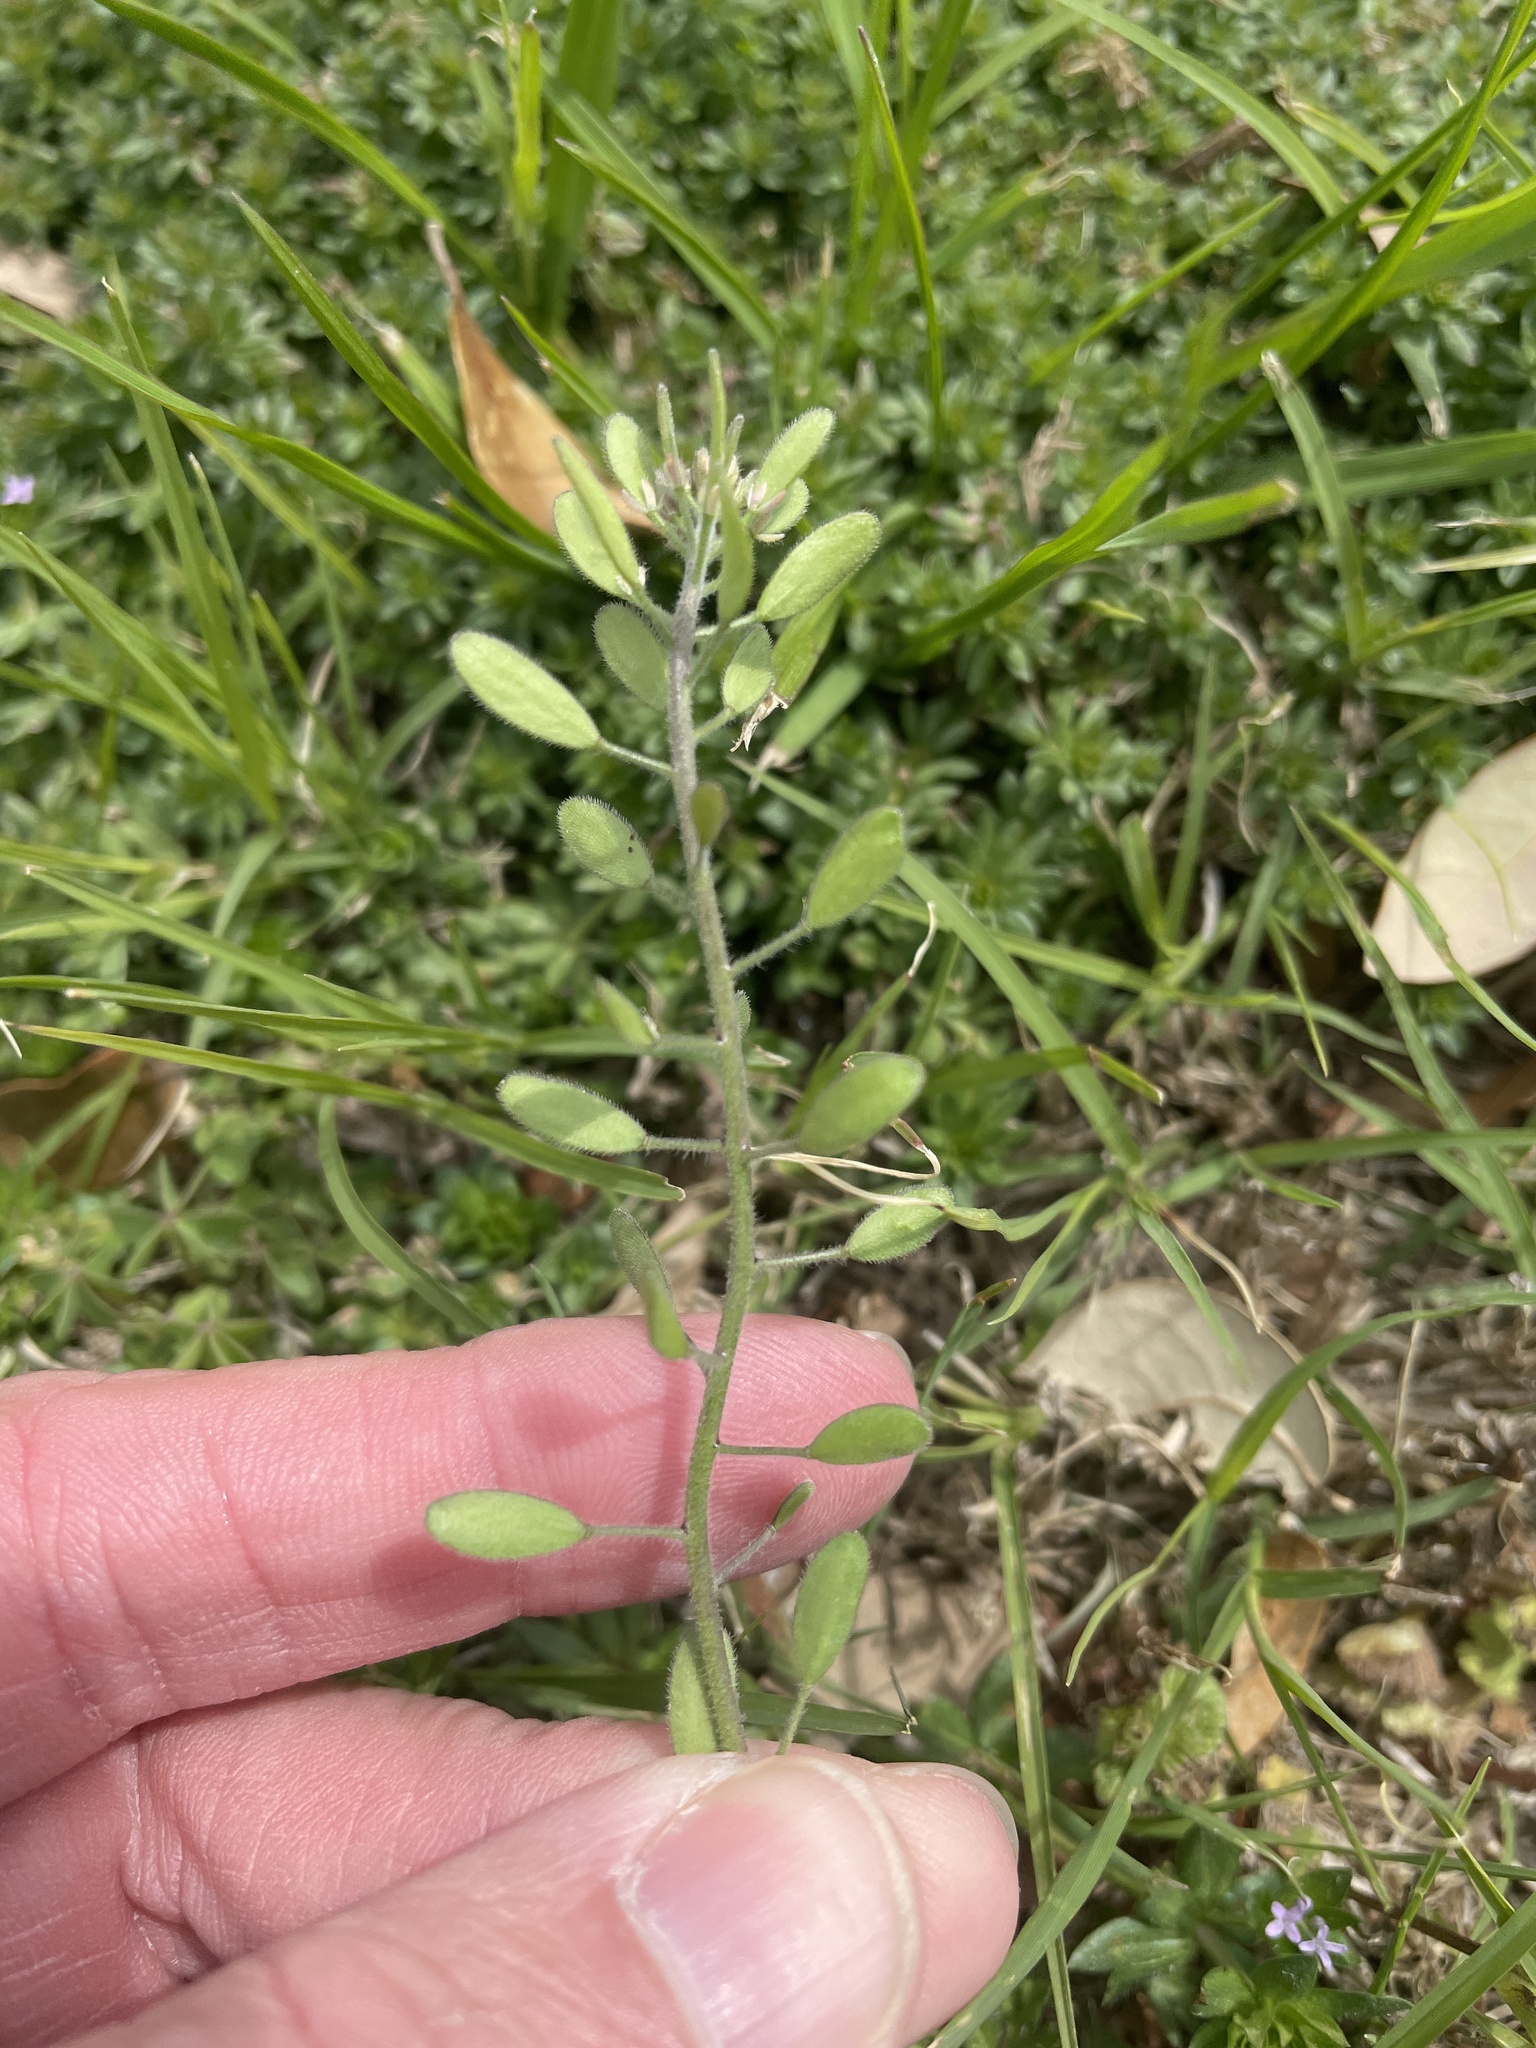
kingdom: Plantae
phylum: Tracheophyta
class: Magnoliopsida
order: Brassicales
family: Brassicaceae
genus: Tomostima
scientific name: Tomostima platycarpa
